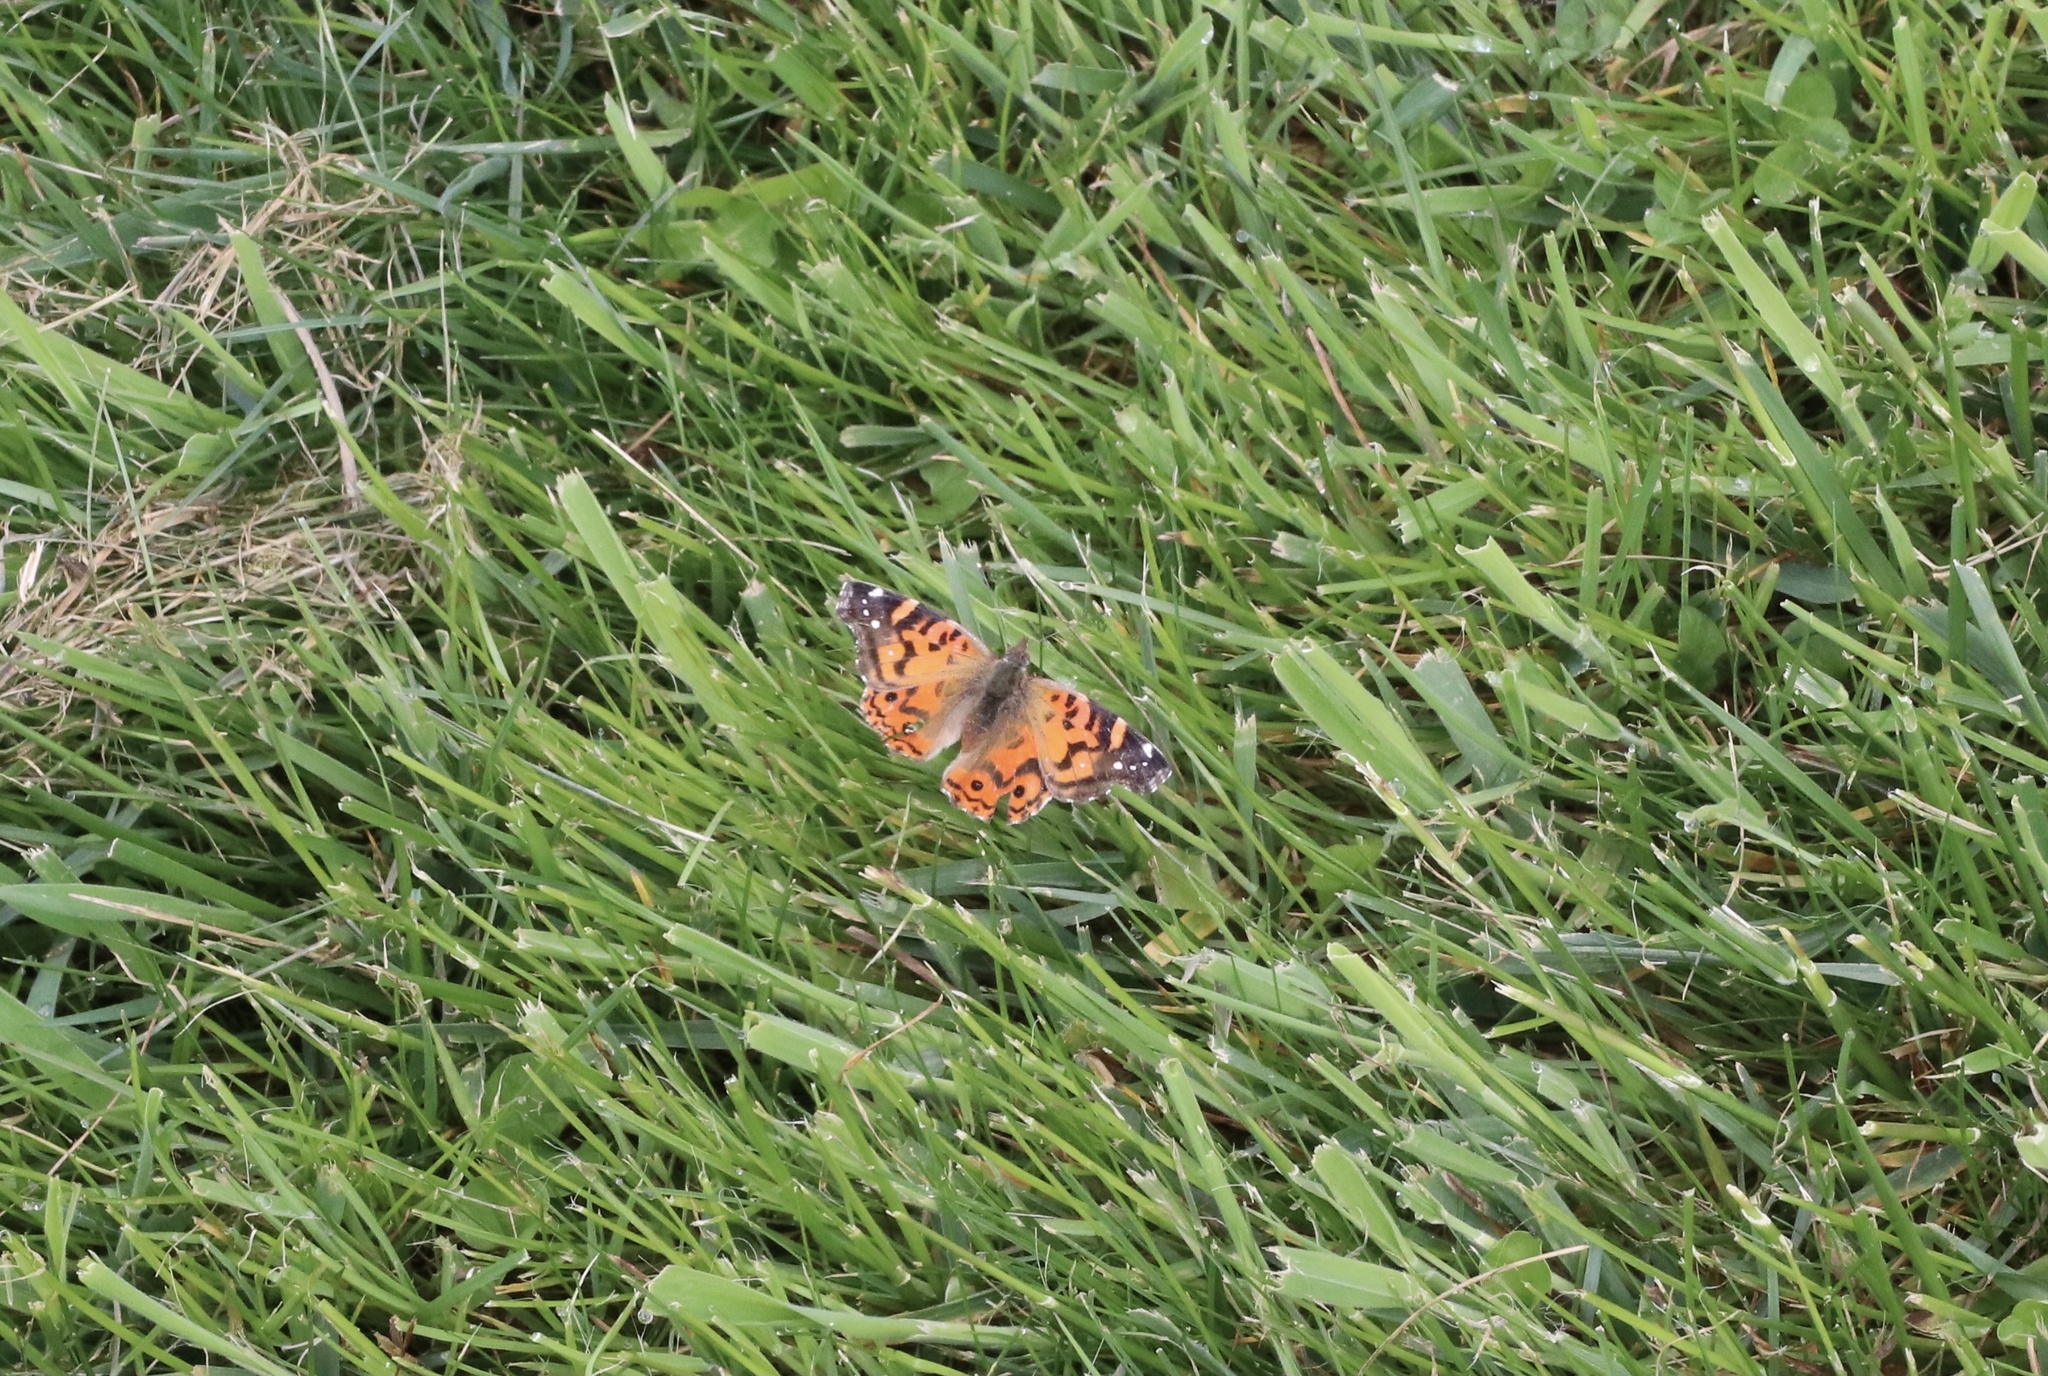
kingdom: Animalia
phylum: Arthropoda
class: Insecta
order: Lepidoptera
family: Nymphalidae
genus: Vanessa
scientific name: Vanessa terpsichore
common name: Chilean lady
